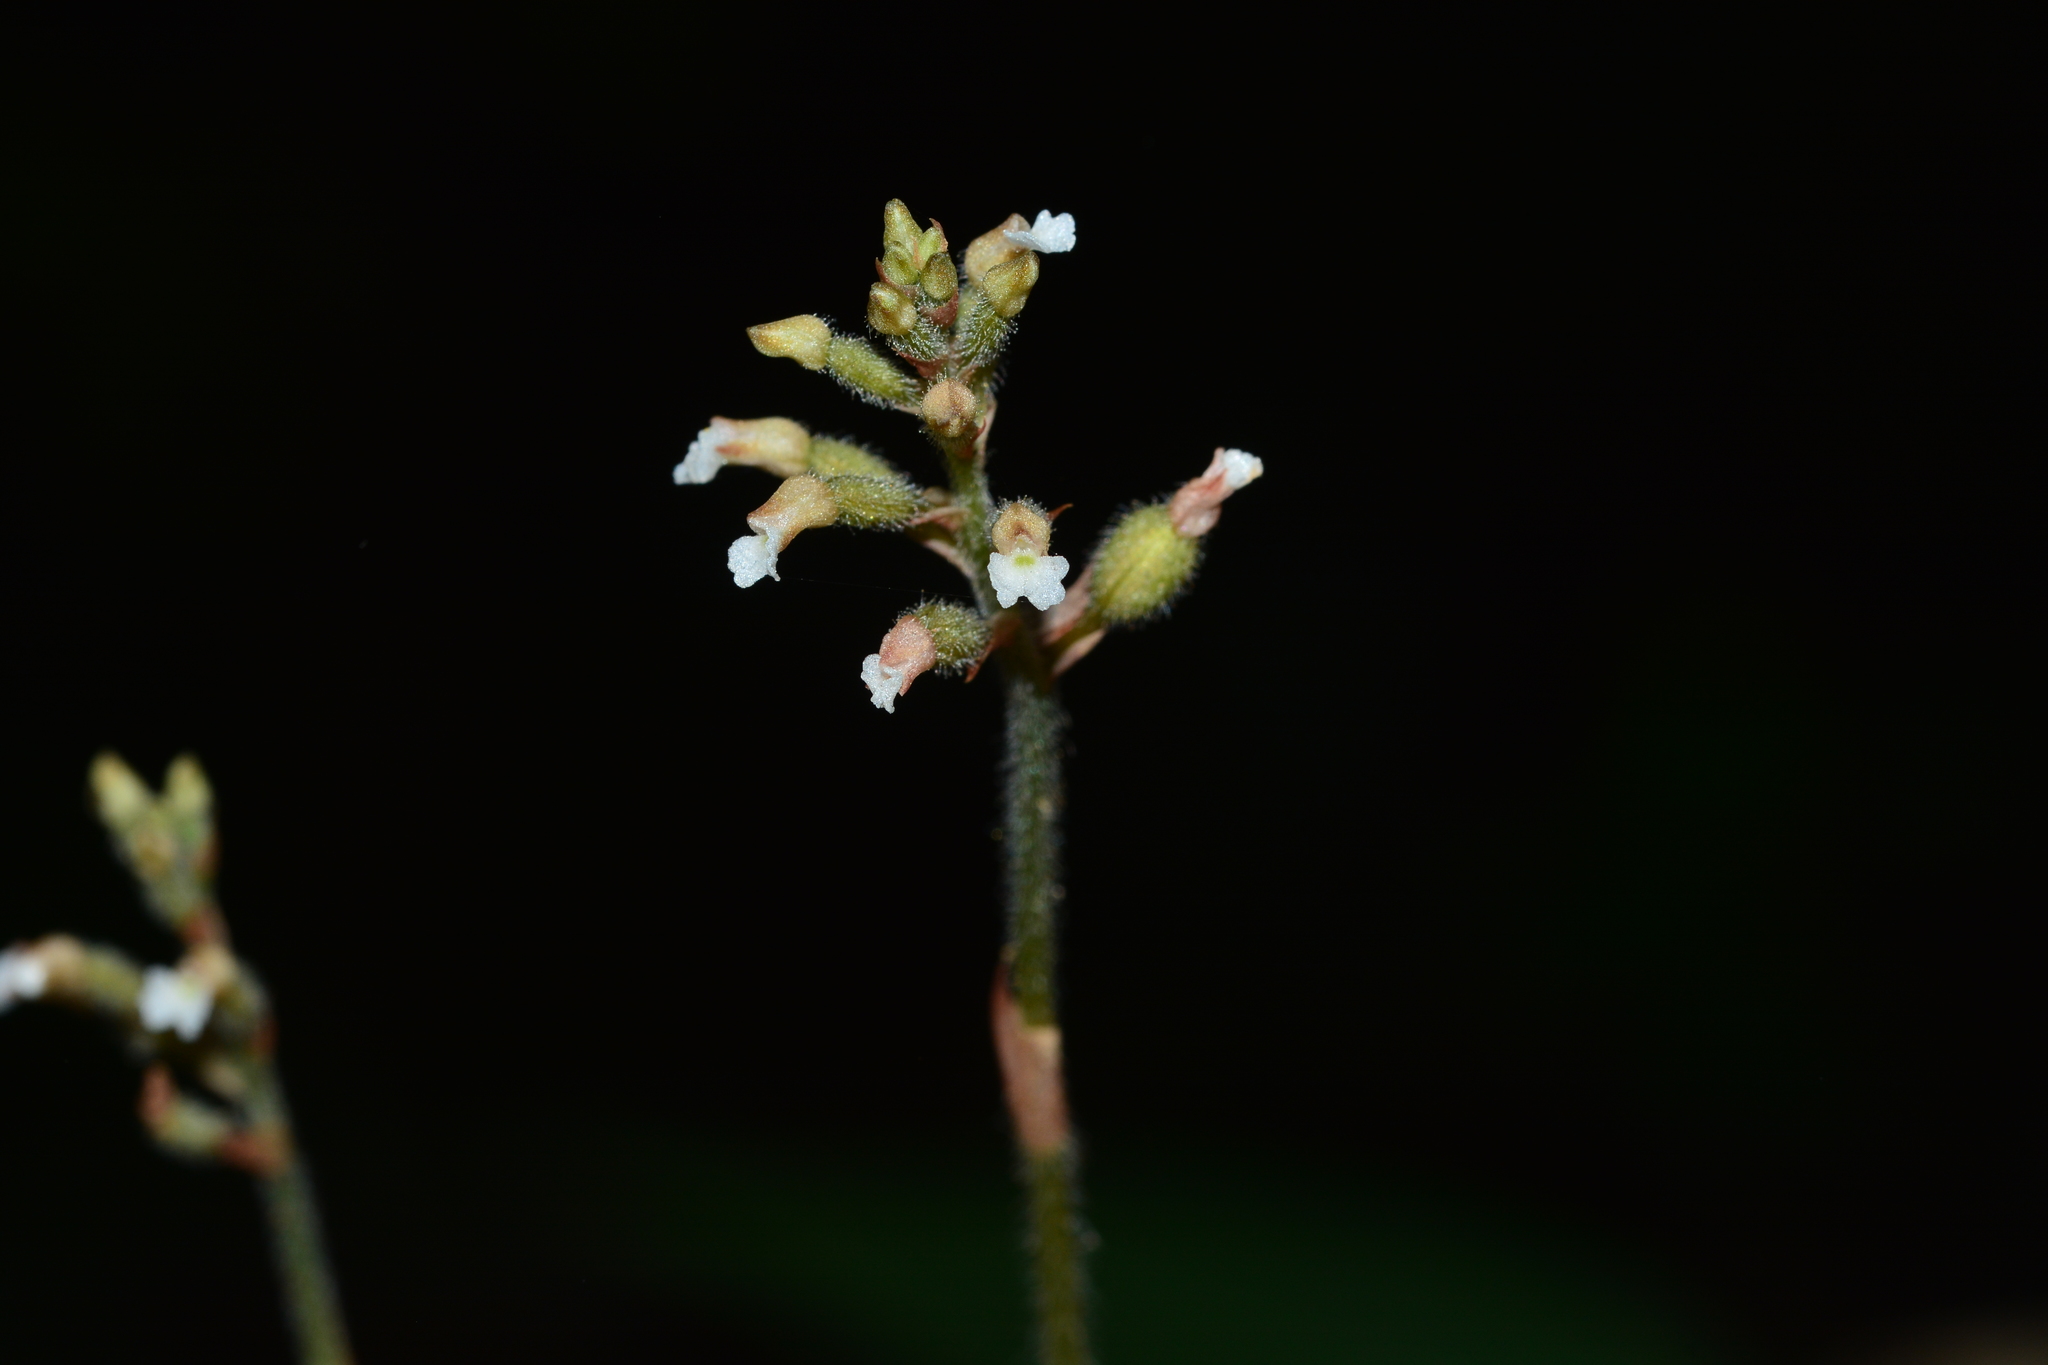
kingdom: Plantae
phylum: Tracheophyta
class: Liliopsida
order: Asparagales
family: Orchidaceae
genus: Cheirostylis
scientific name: Cheirostylis parvifolia
